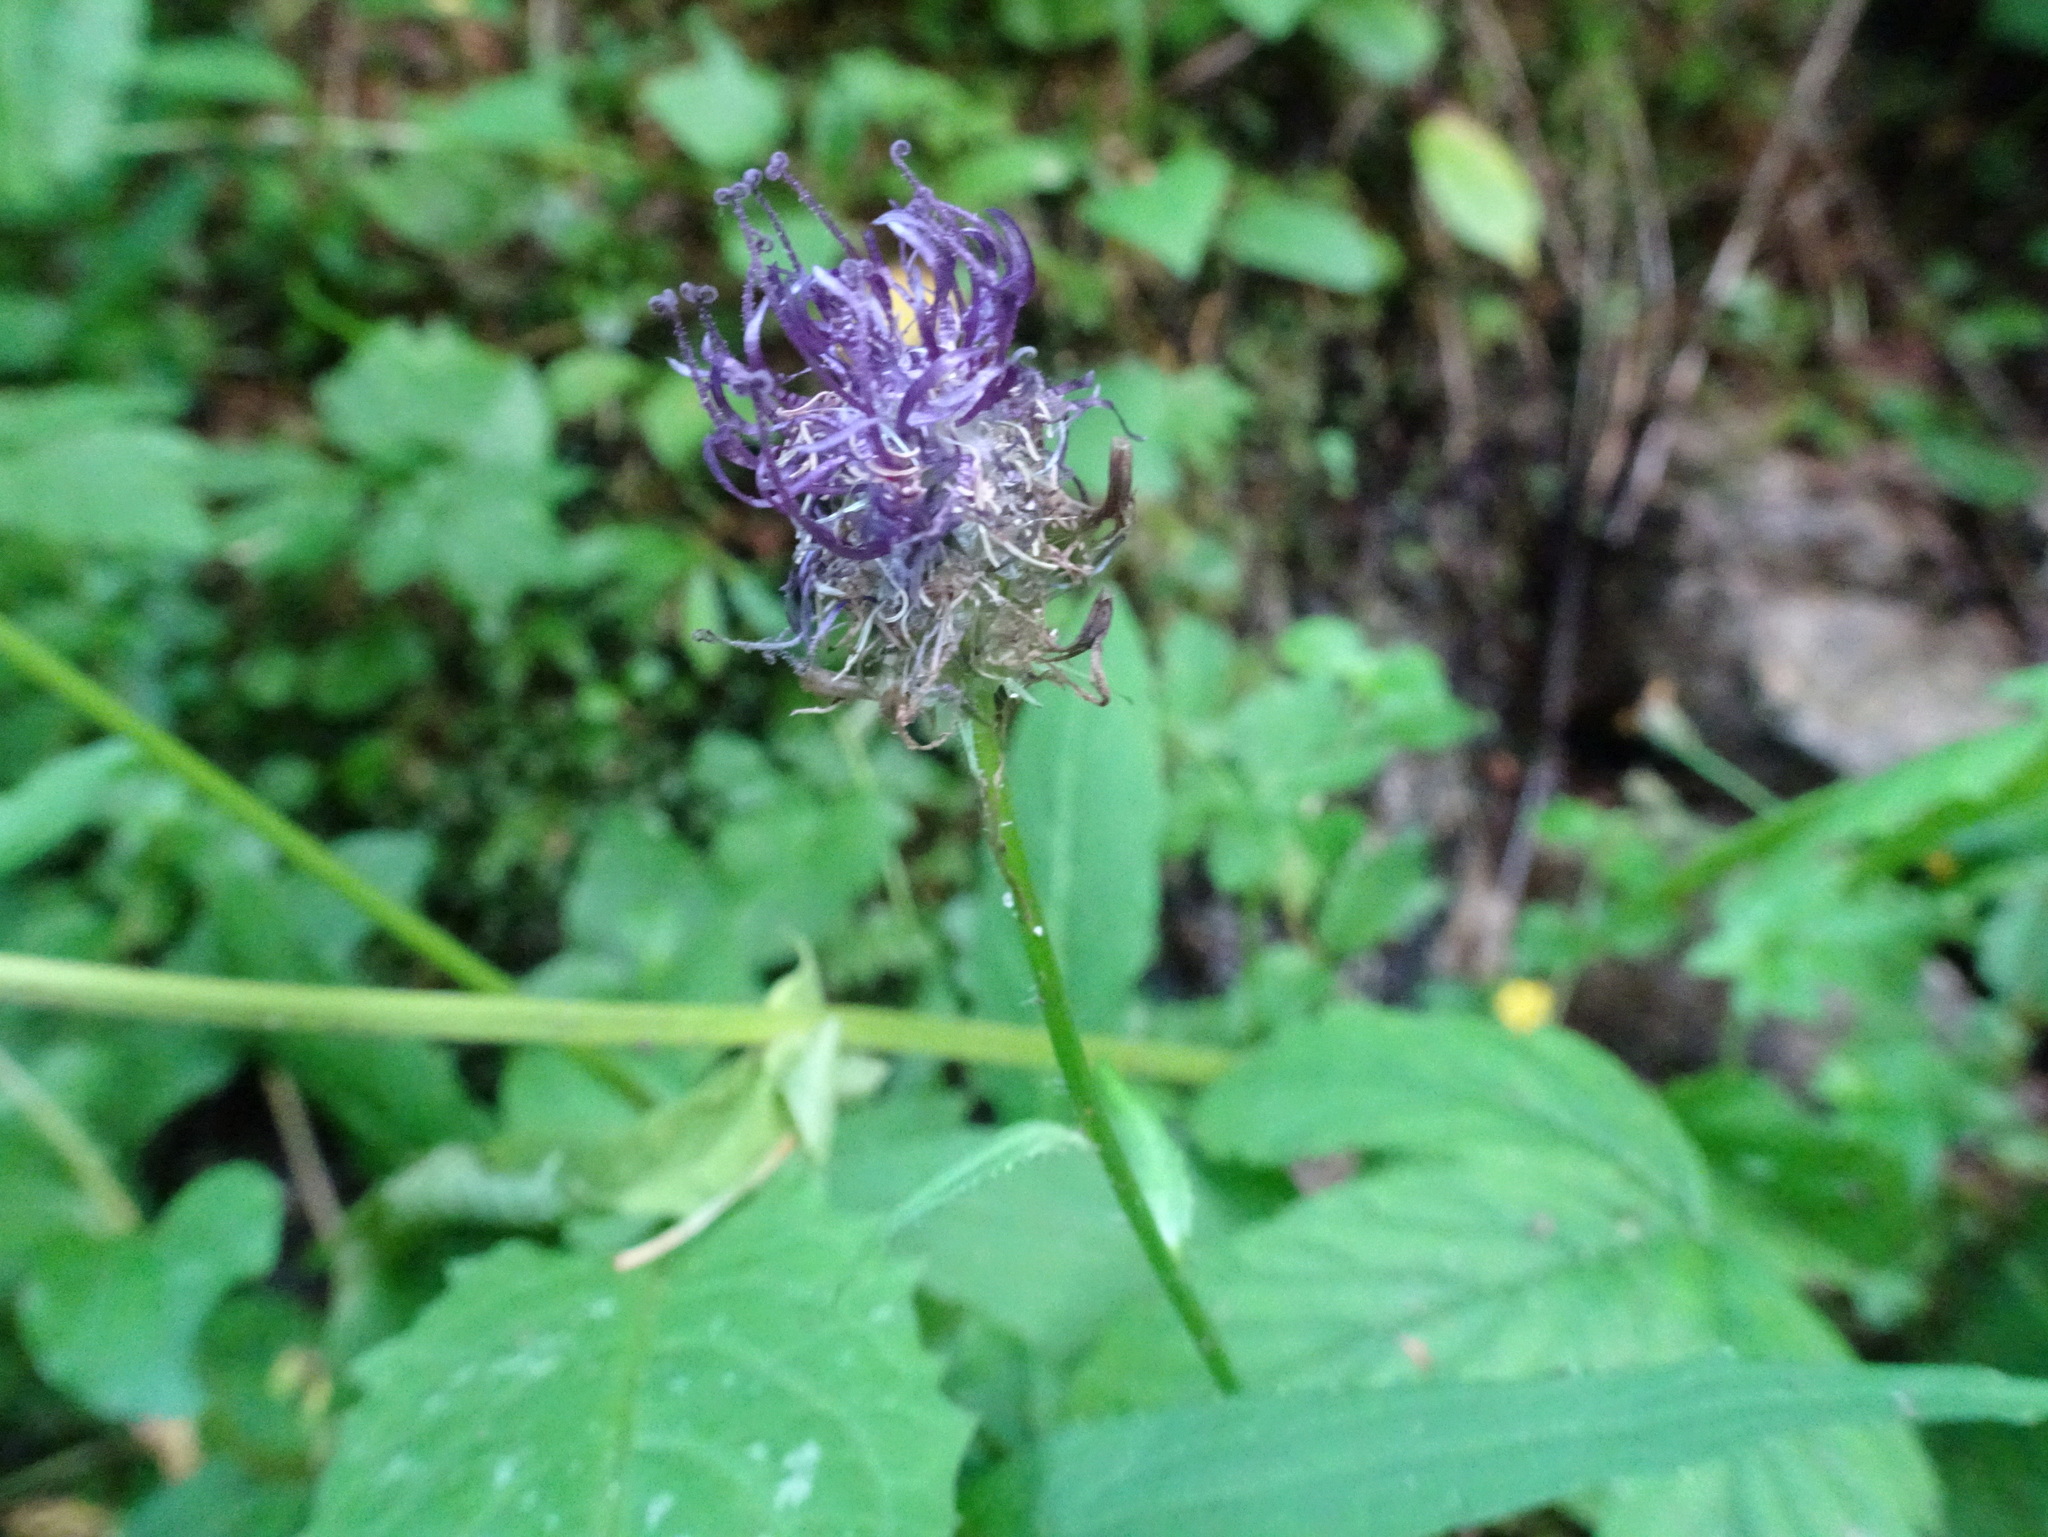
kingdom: Plantae
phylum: Tracheophyta
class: Magnoliopsida
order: Asterales
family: Campanulaceae
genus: Phyteuma
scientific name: Phyteuma nigrum
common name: Black rampion
